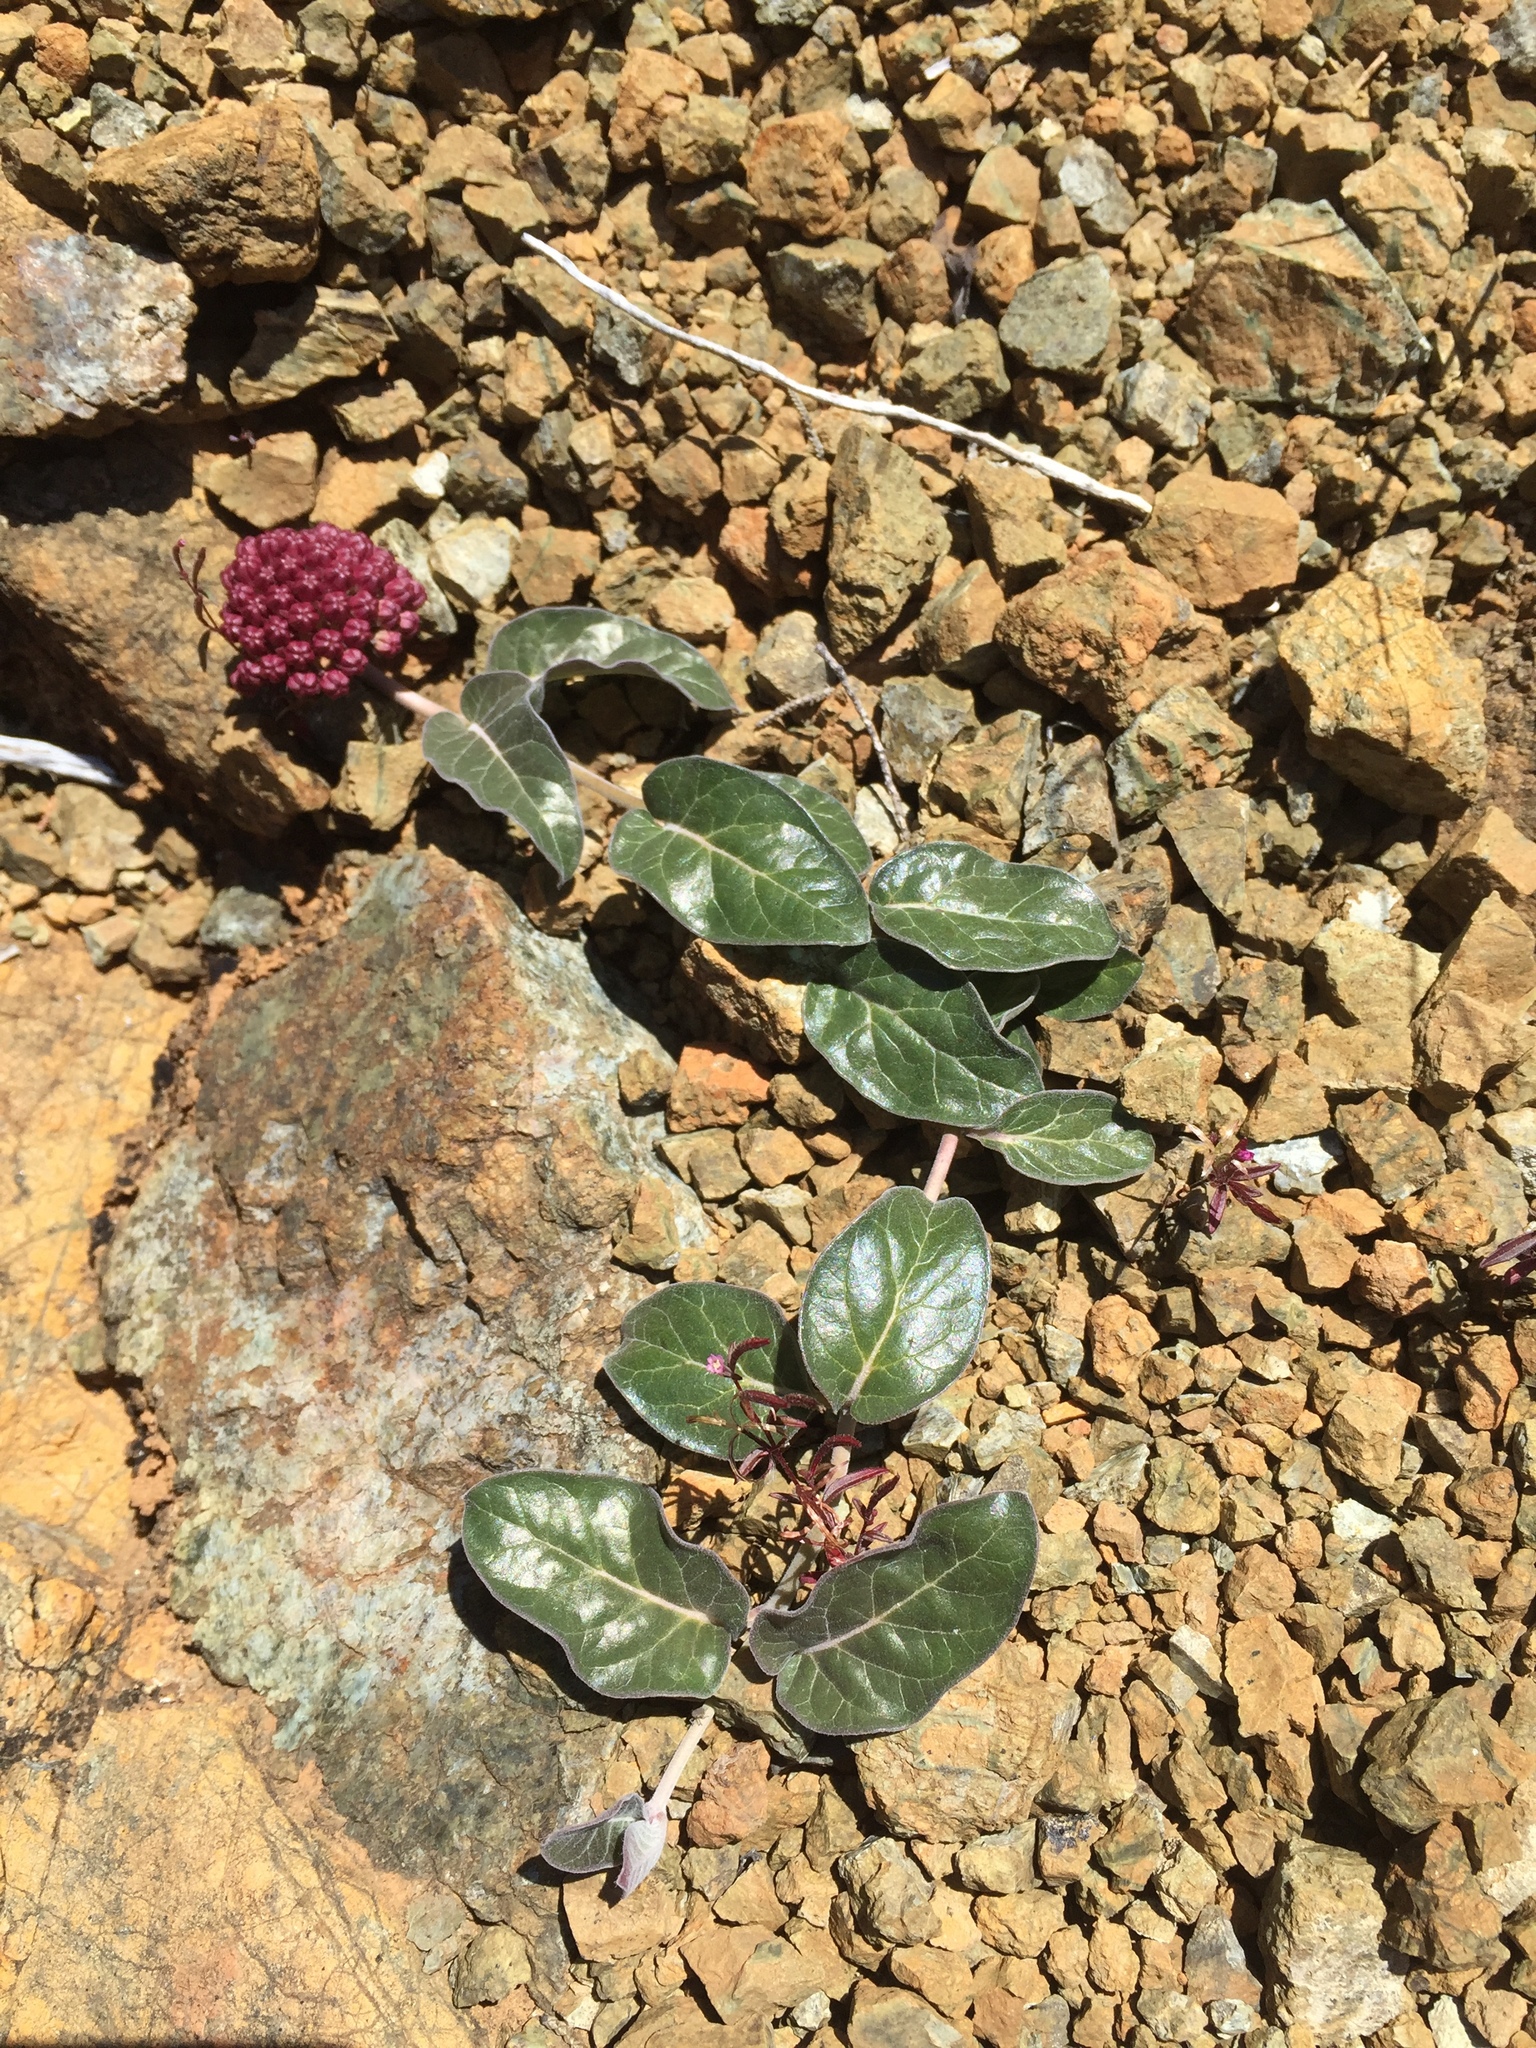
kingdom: Plantae
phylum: Tracheophyta
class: Magnoliopsida
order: Gentianales
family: Apocynaceae
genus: Asclepias
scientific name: Asclepias solanoana
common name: Serpentine milkweed
